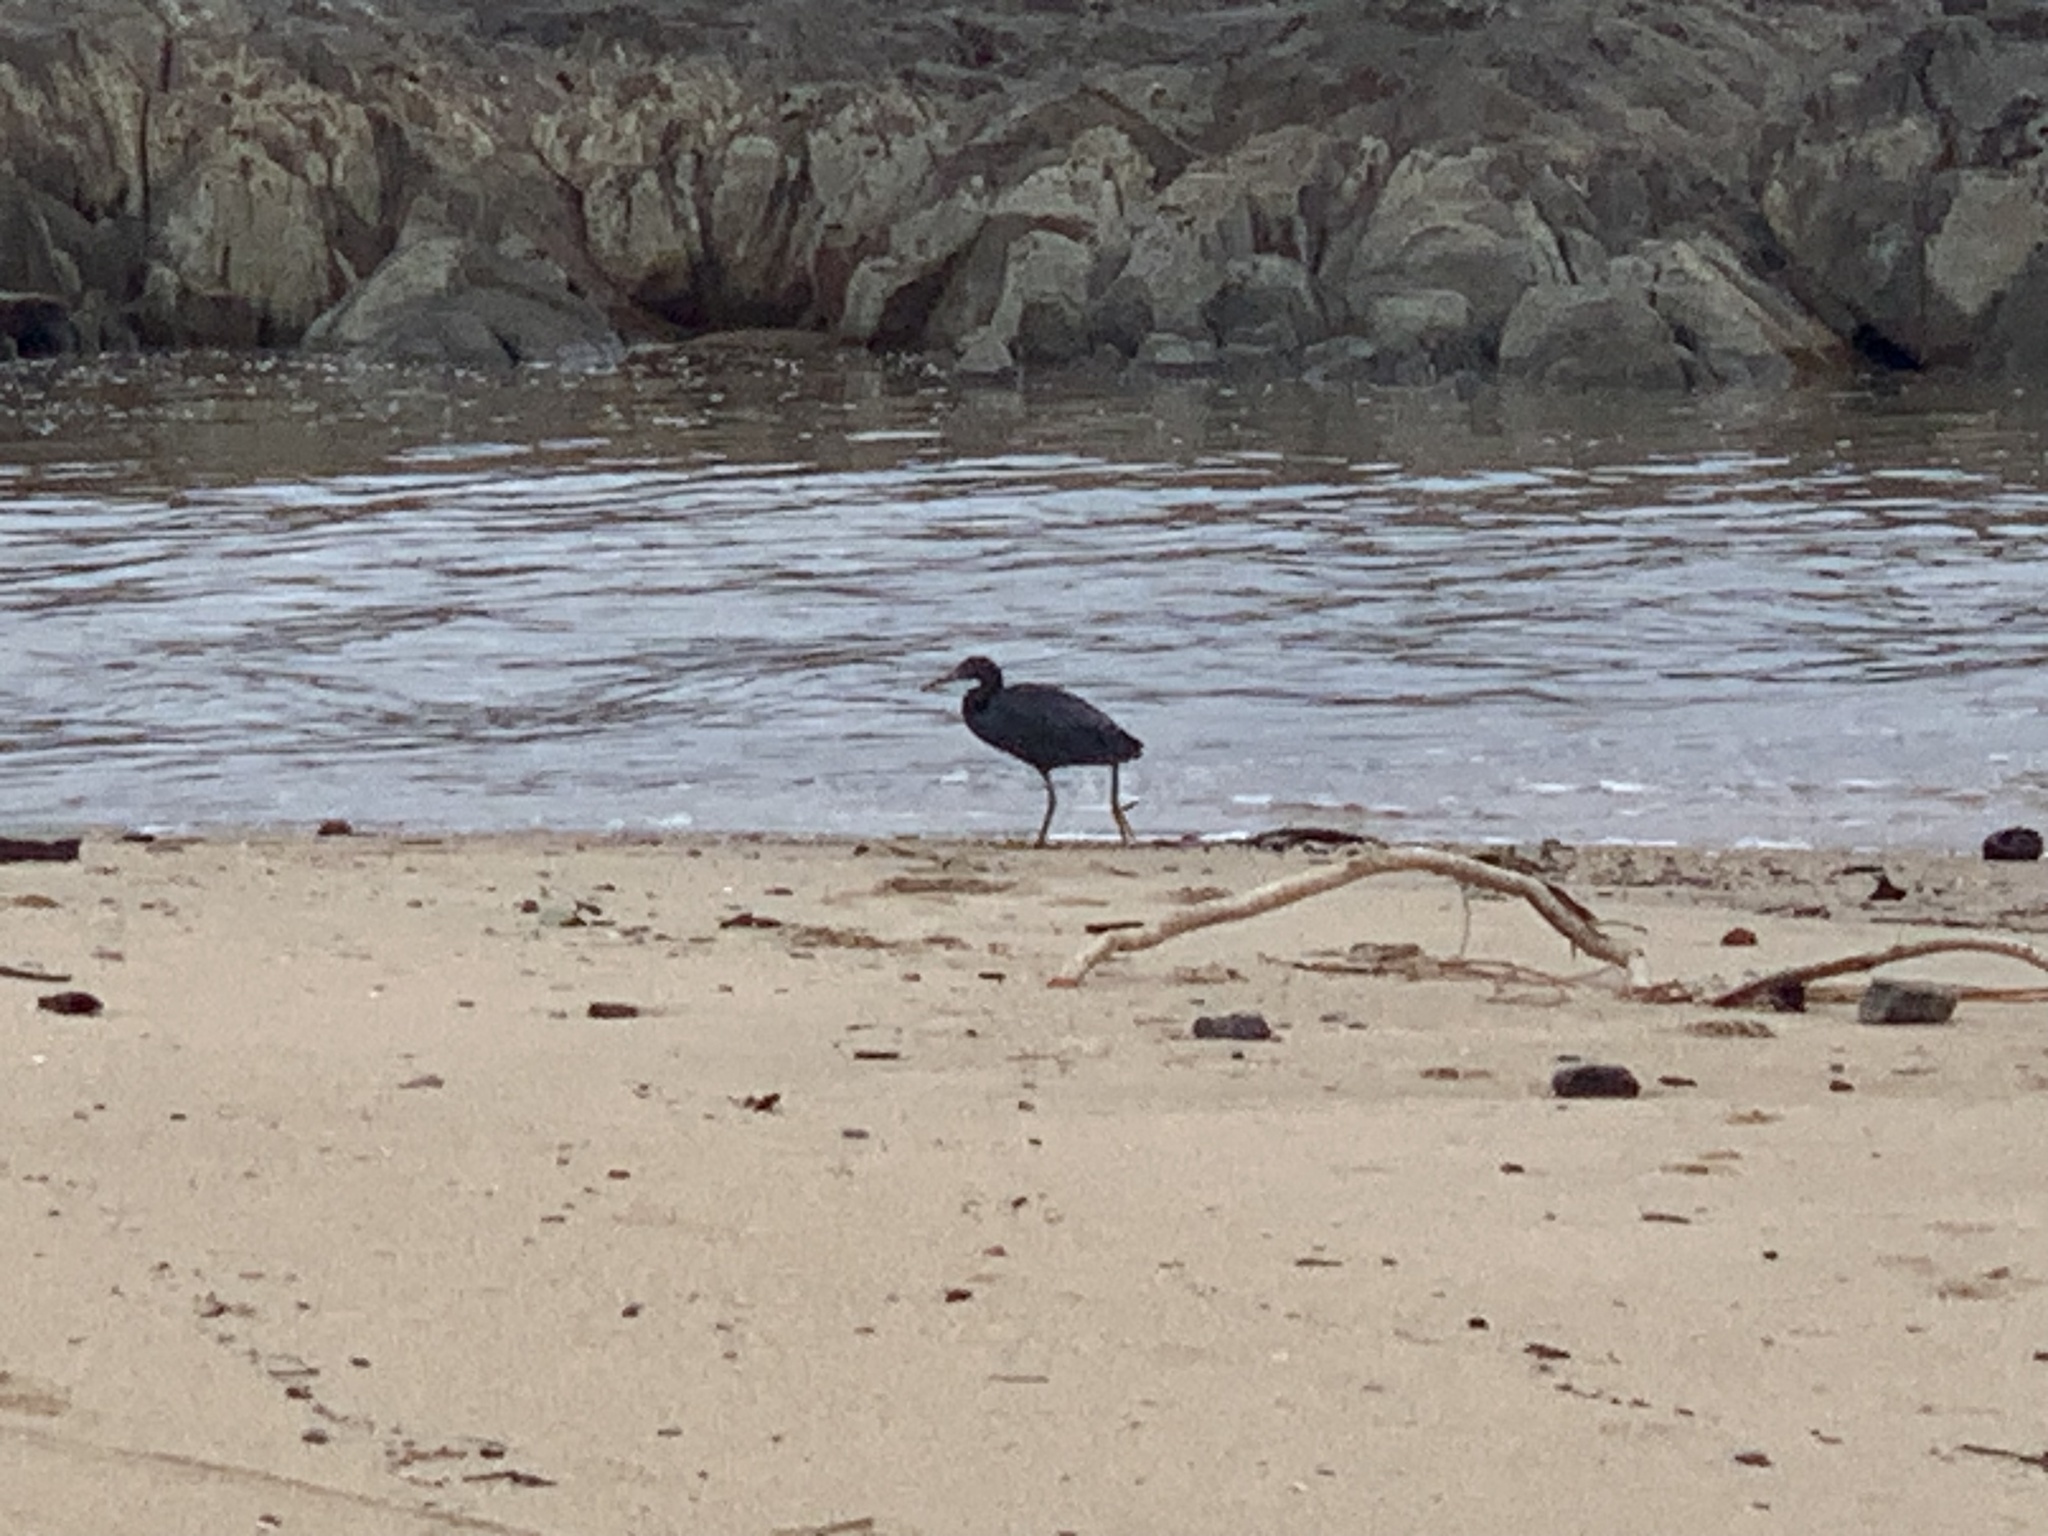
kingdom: Animalia
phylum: Chordata
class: Aves
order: Pelecaniformes
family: Ardeidae
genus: Egretta
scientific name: Egretta sacra
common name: Pacific reef heron
